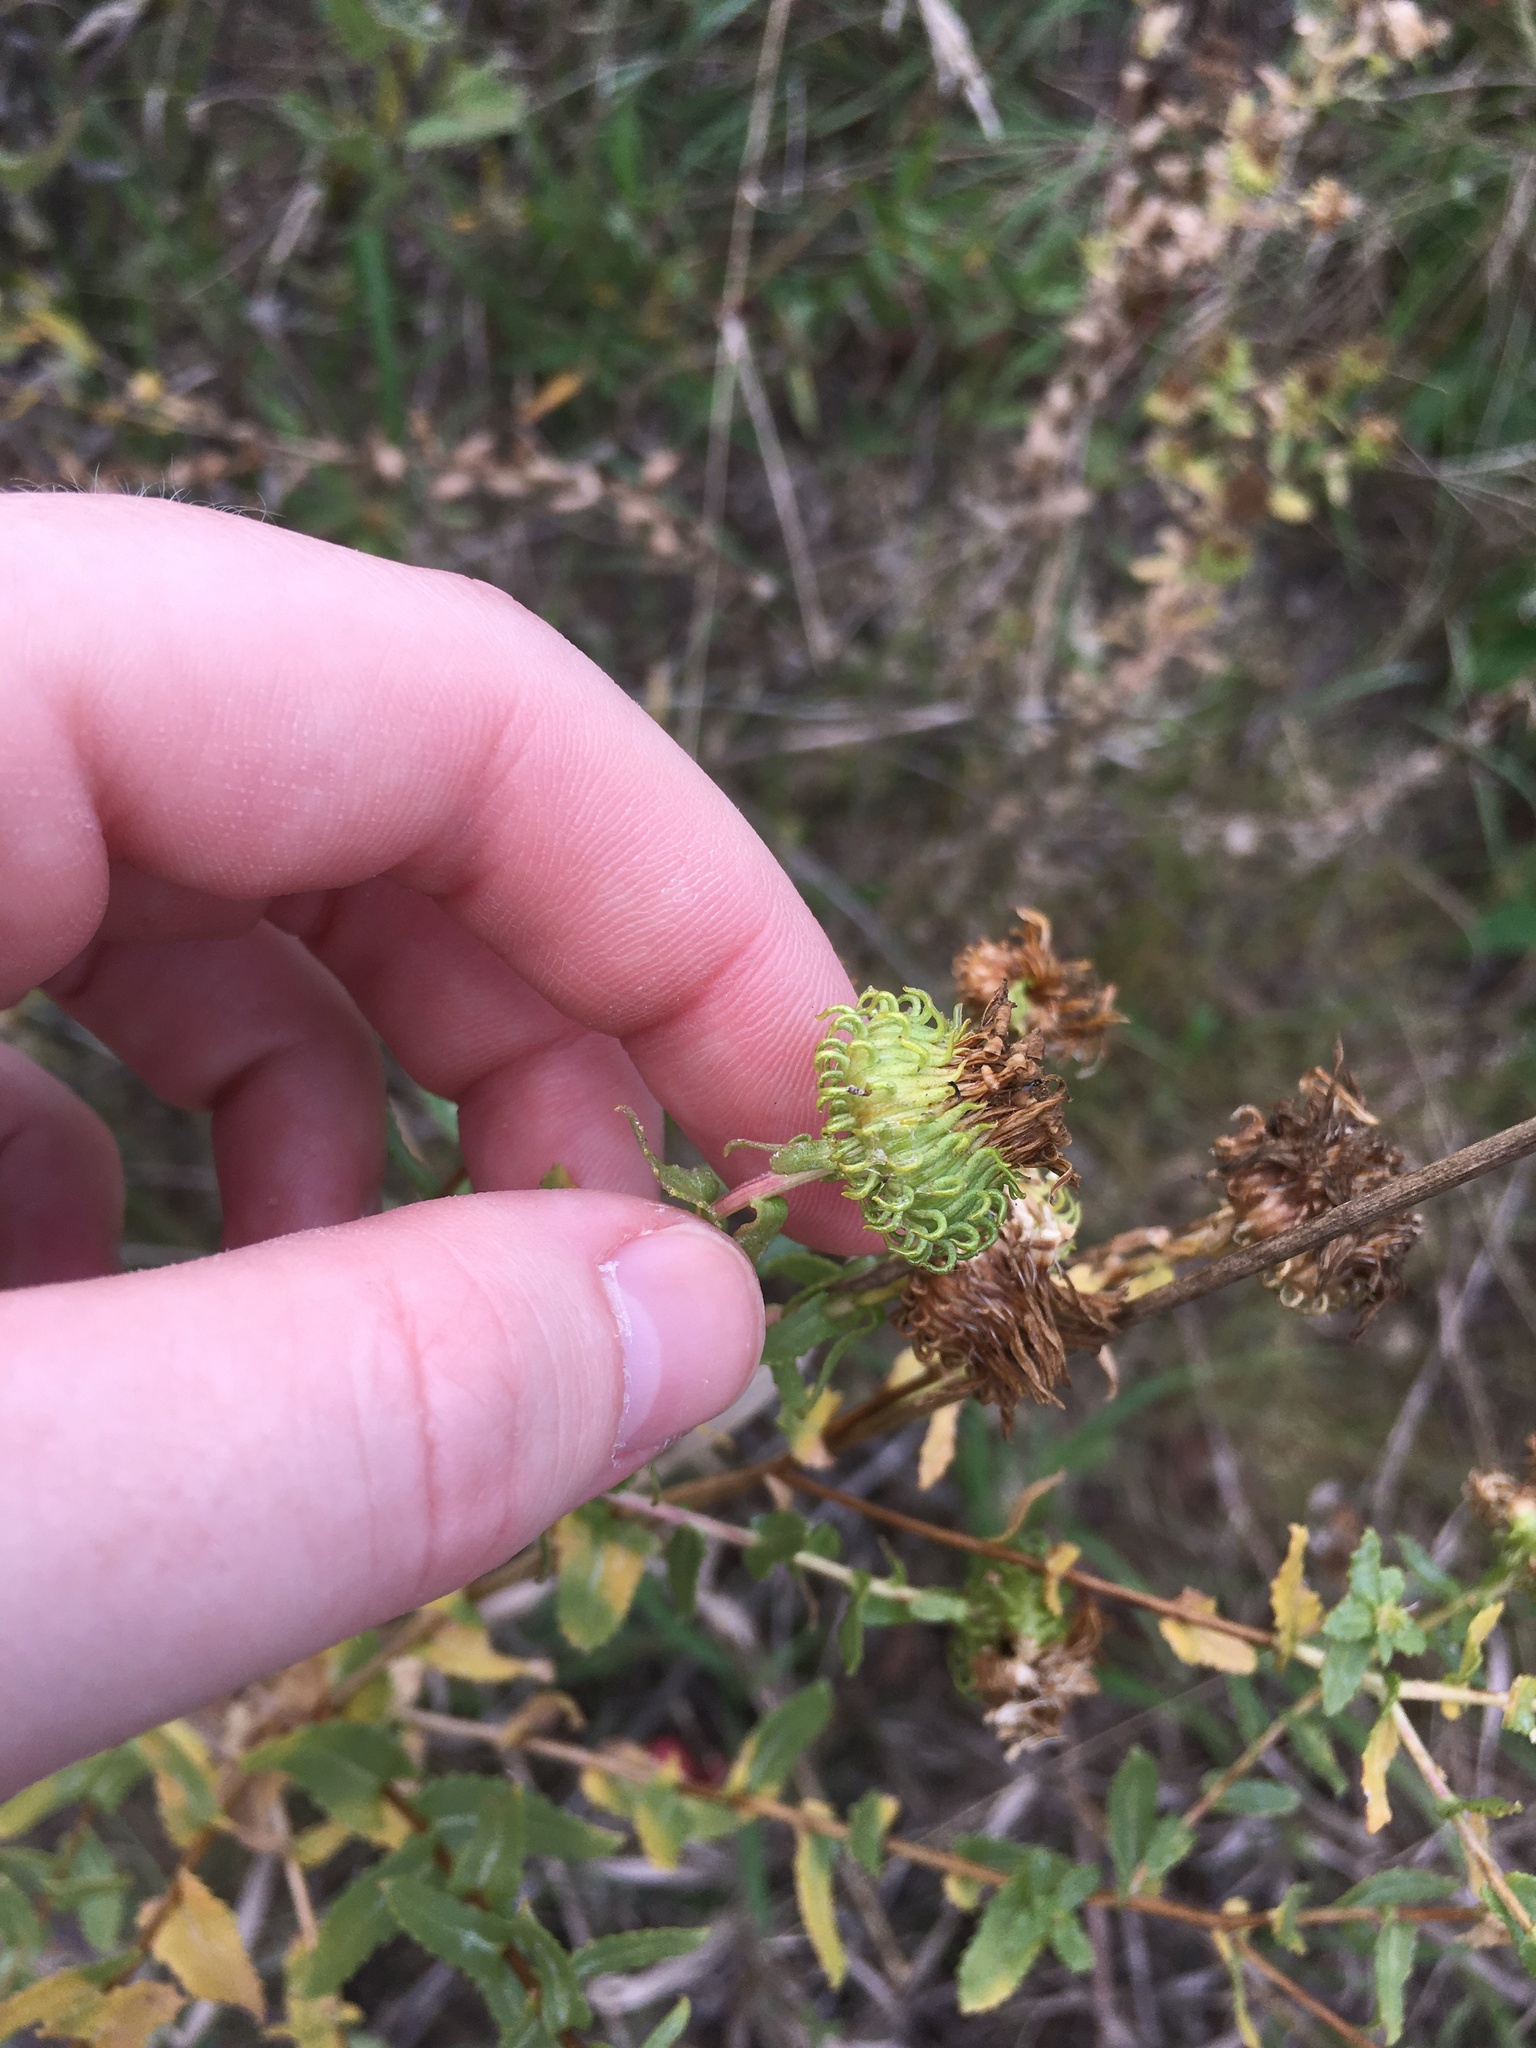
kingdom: Plantae
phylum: Tracheophyta
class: Magnoliopsida
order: Asterales
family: Asteraceae
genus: Grindelia
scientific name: Grindelia squarrosa
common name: Curly-cup gumweed
